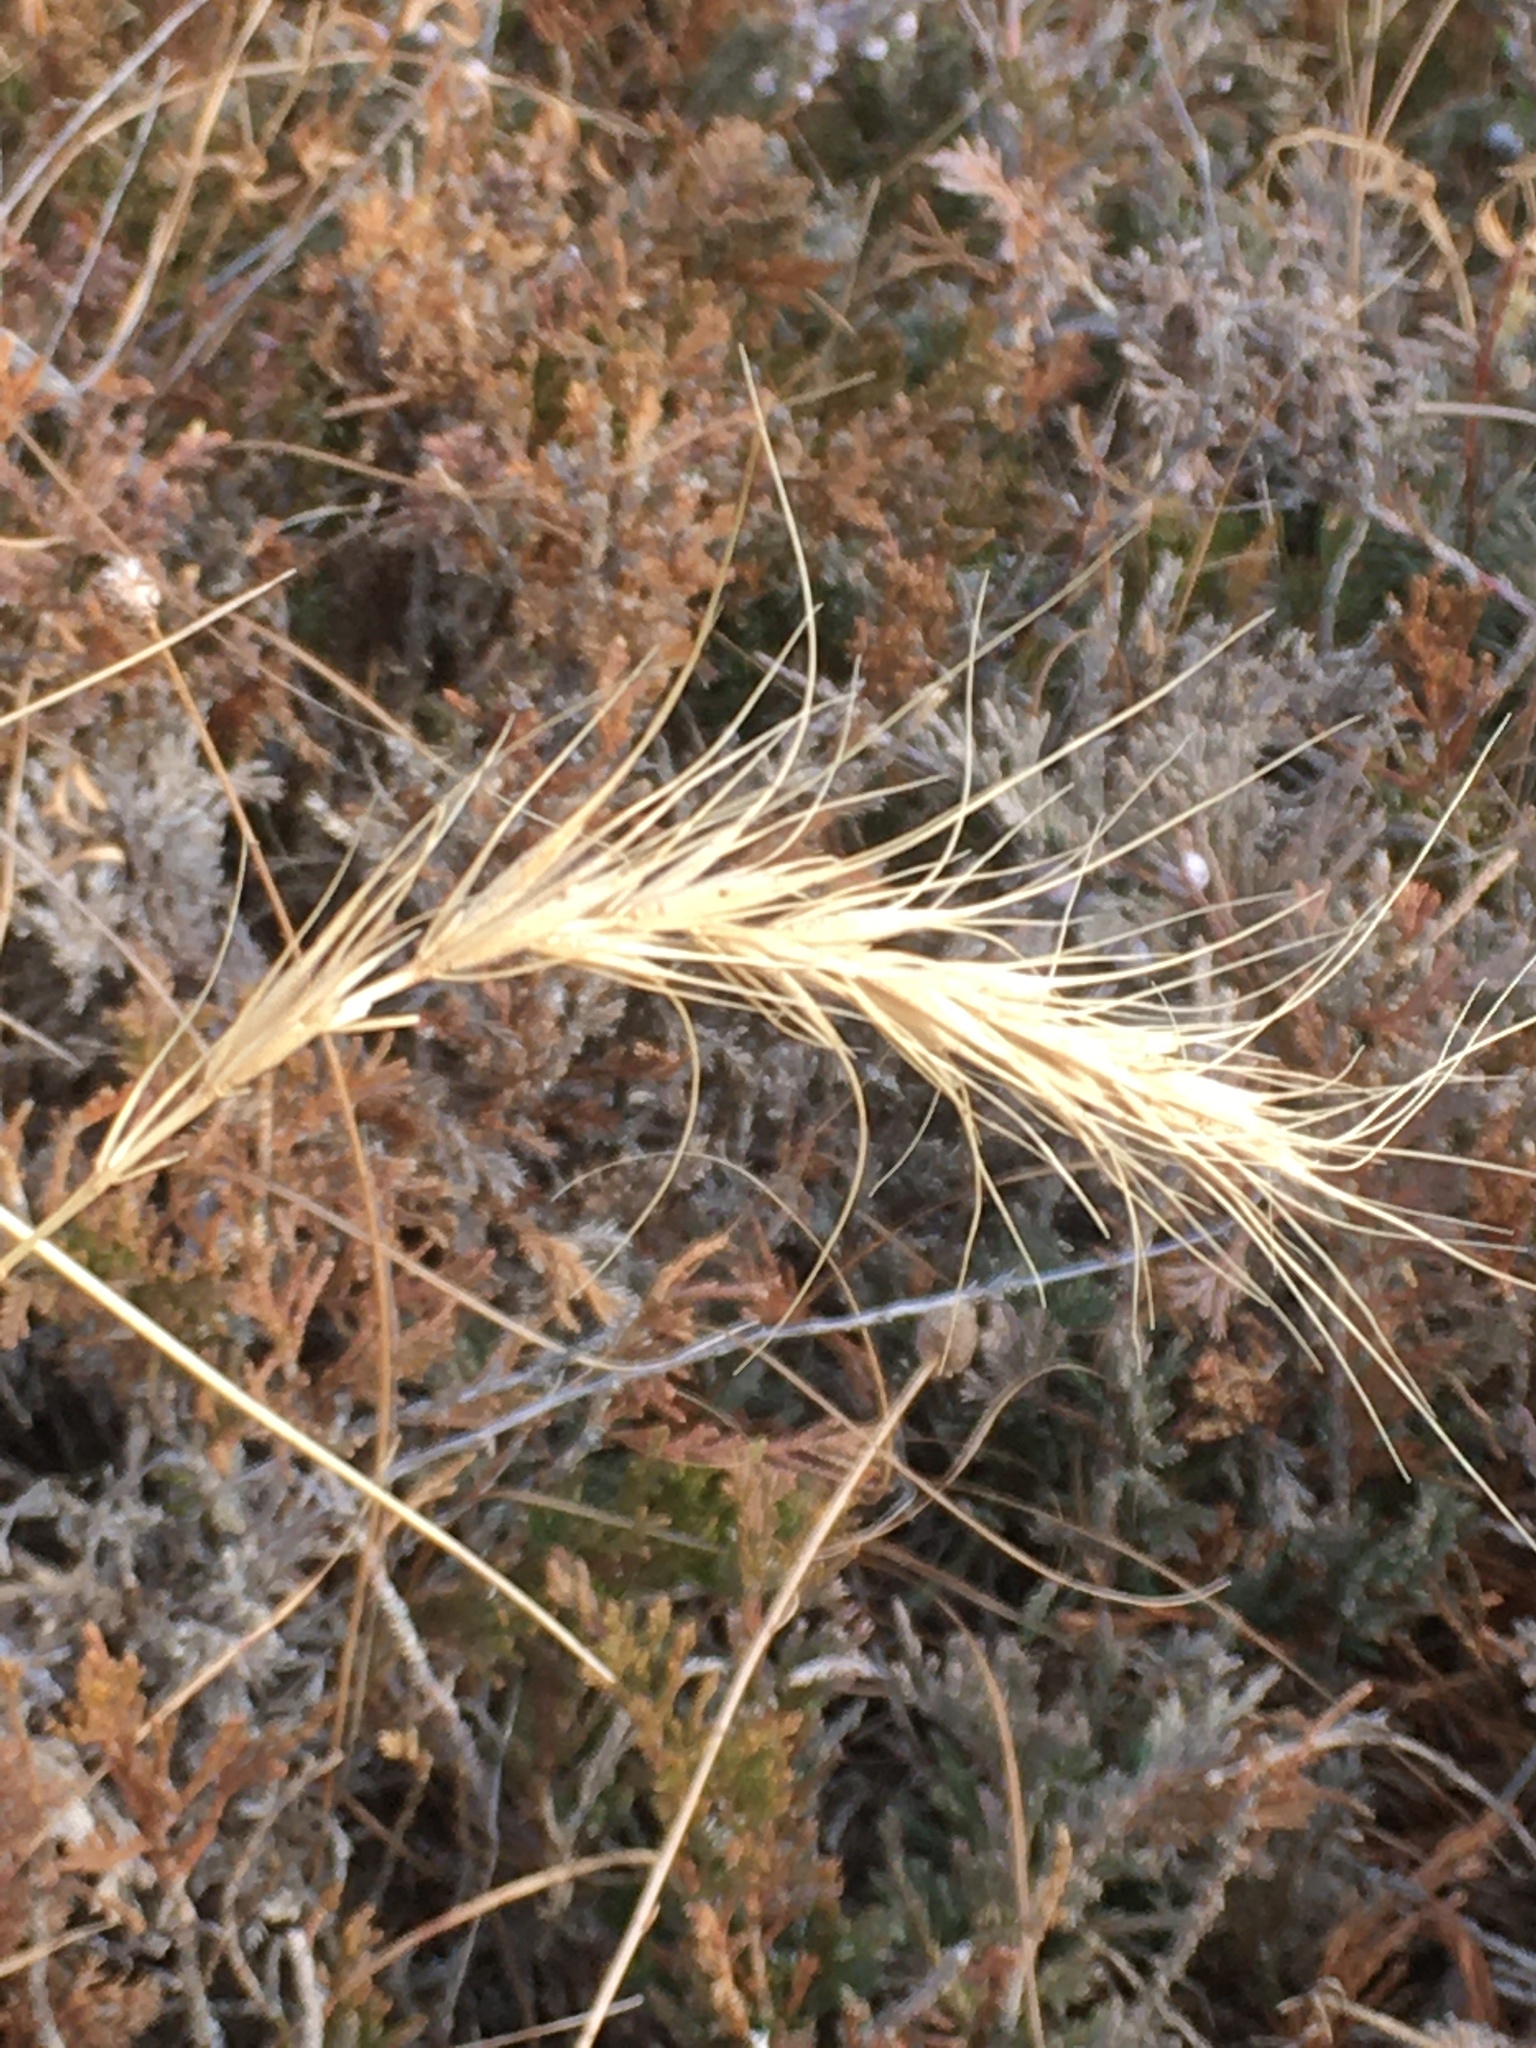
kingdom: Plantae
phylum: Tracheophyta
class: Liliopsida
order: Poales
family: Poaceae
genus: Elymus
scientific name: Elymus canadensis
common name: Canada wild rye
